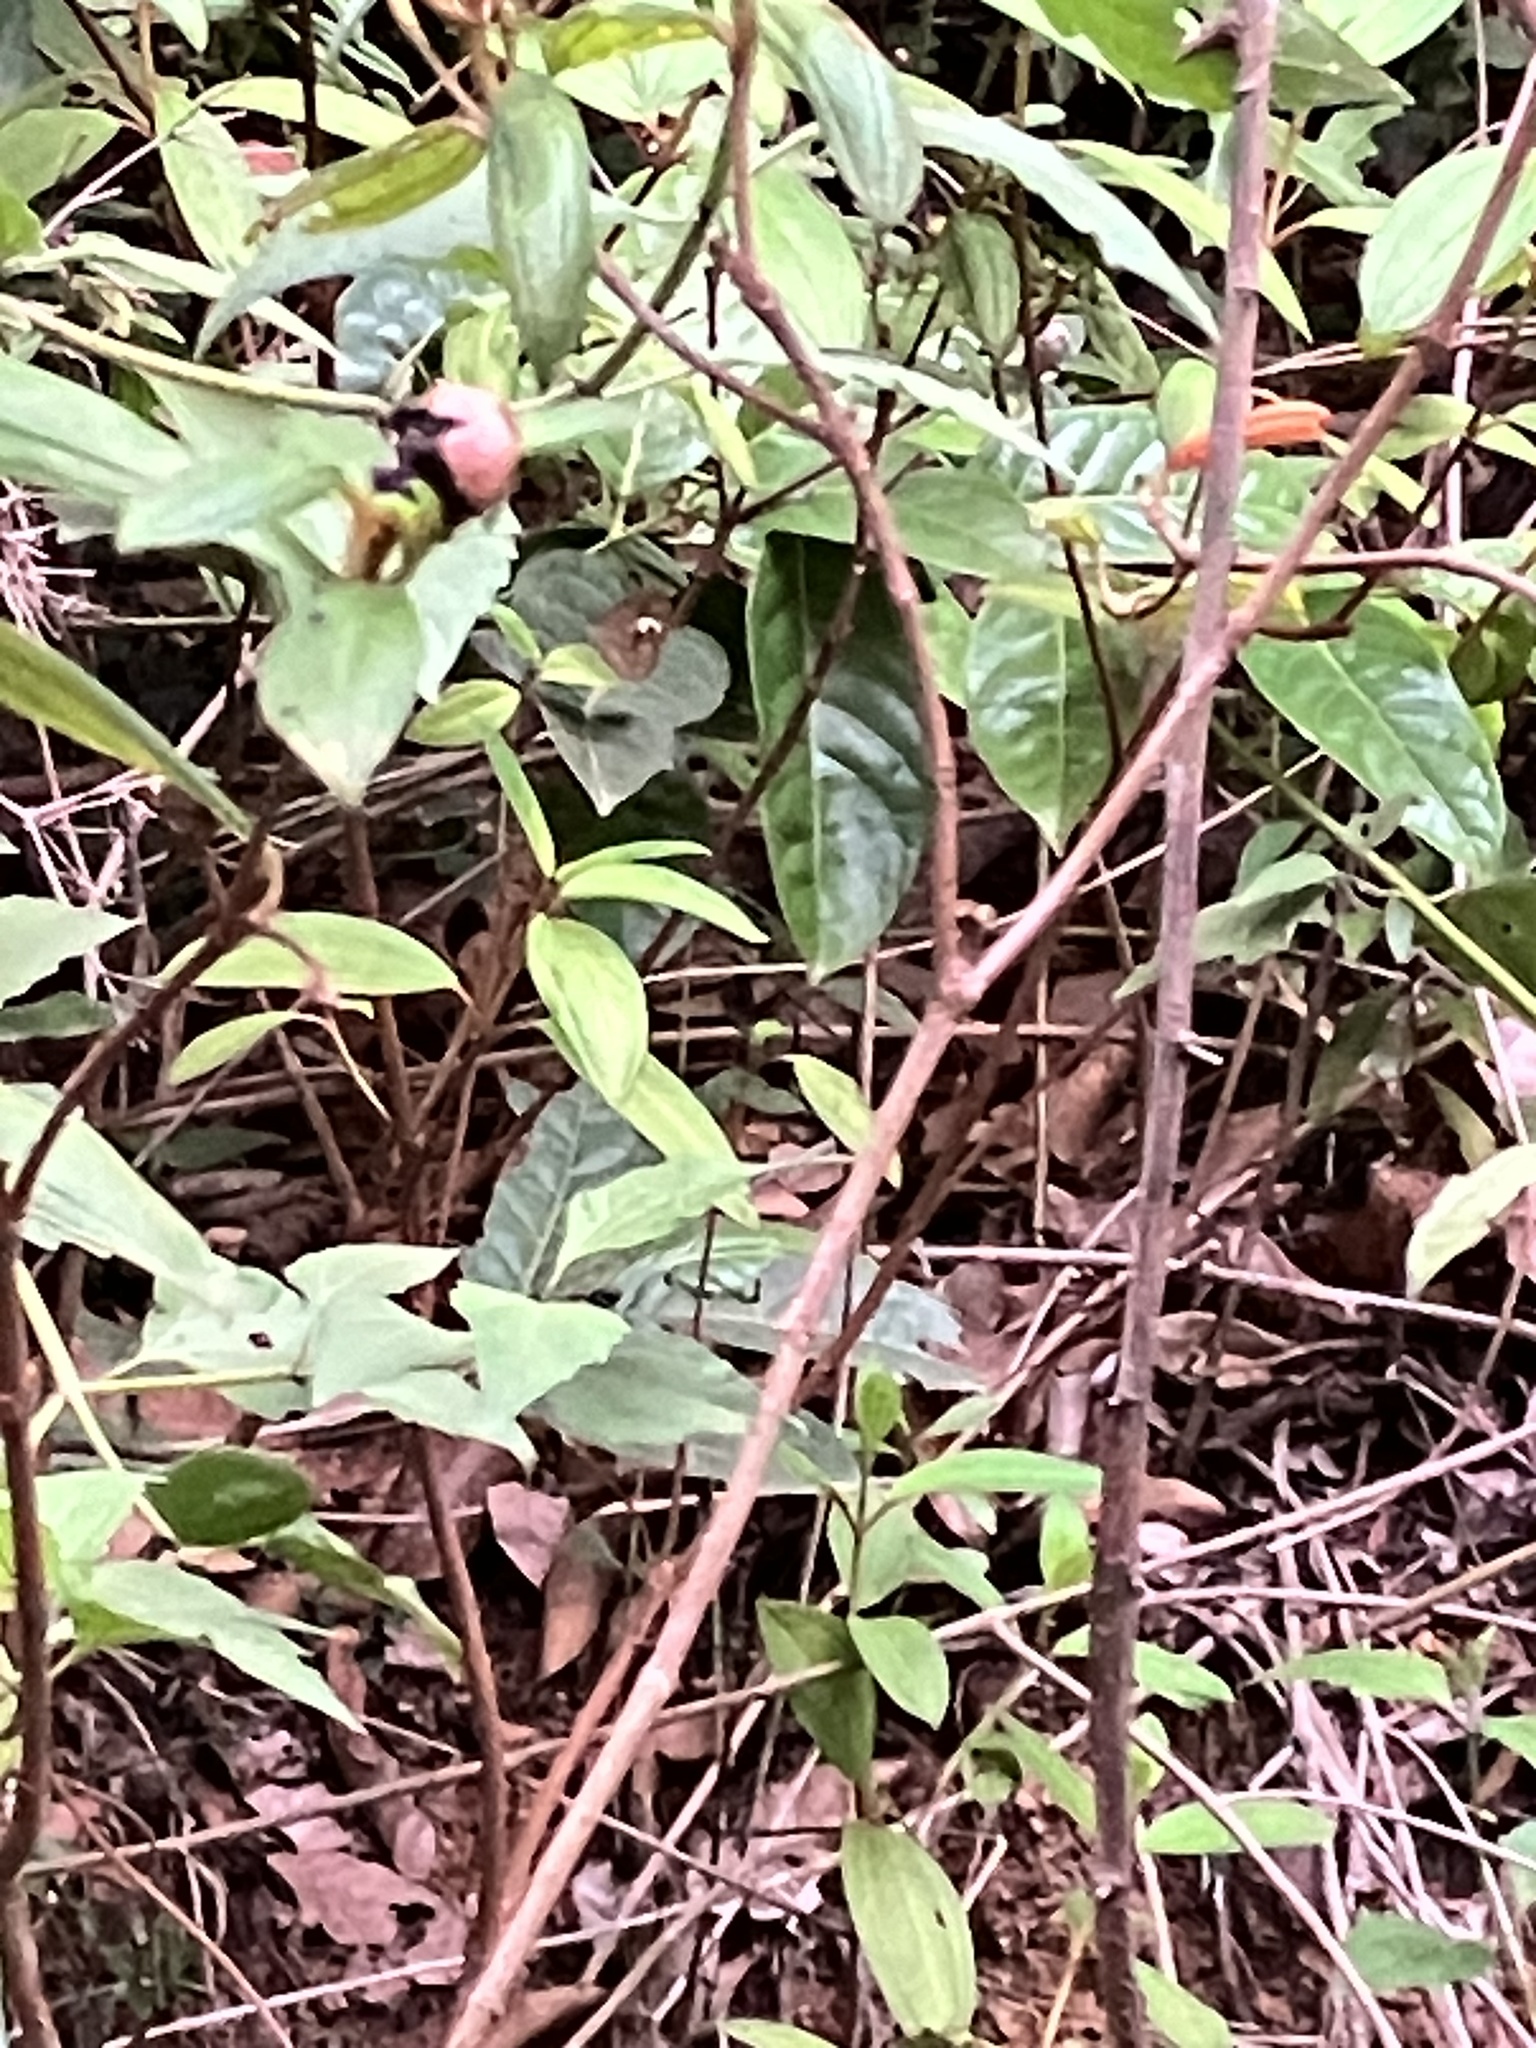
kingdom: Animalia
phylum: Arthropoda
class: Insecta
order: Lepidoptera
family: Nymphalidae
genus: Mycalesis
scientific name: Mycalesis patnia
